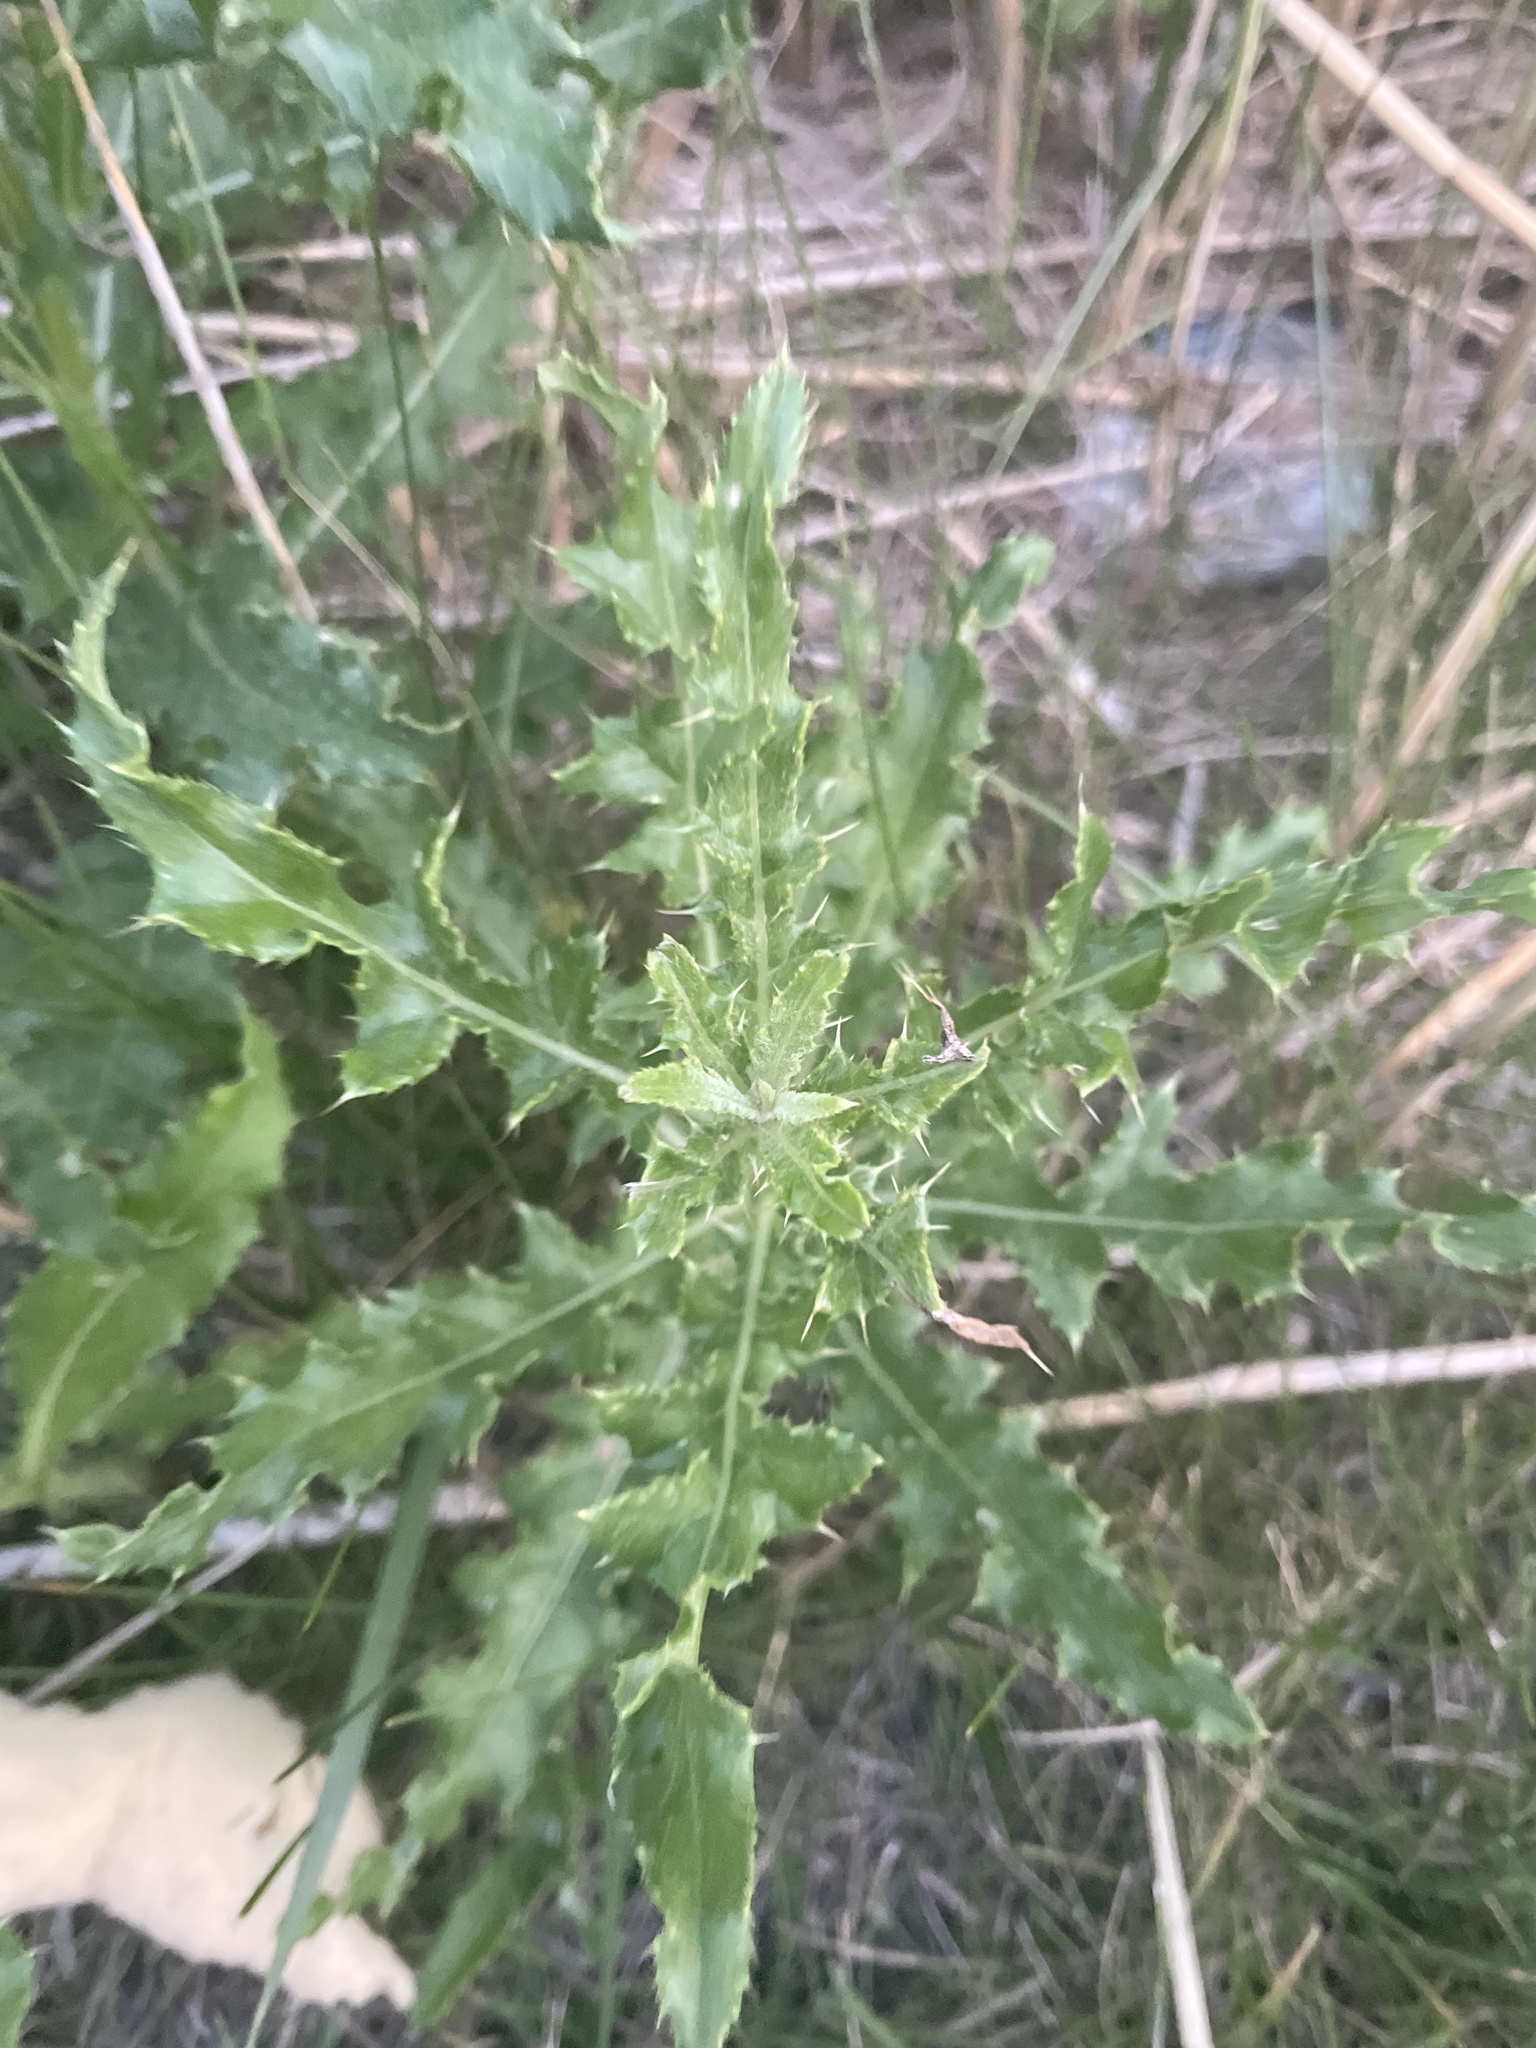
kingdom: Plantae
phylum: Tracheophyta
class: Magnoliopsida
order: Asterales
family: Asteraceae
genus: Cirsium
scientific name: Cirsium arvense
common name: Creeping thistle
